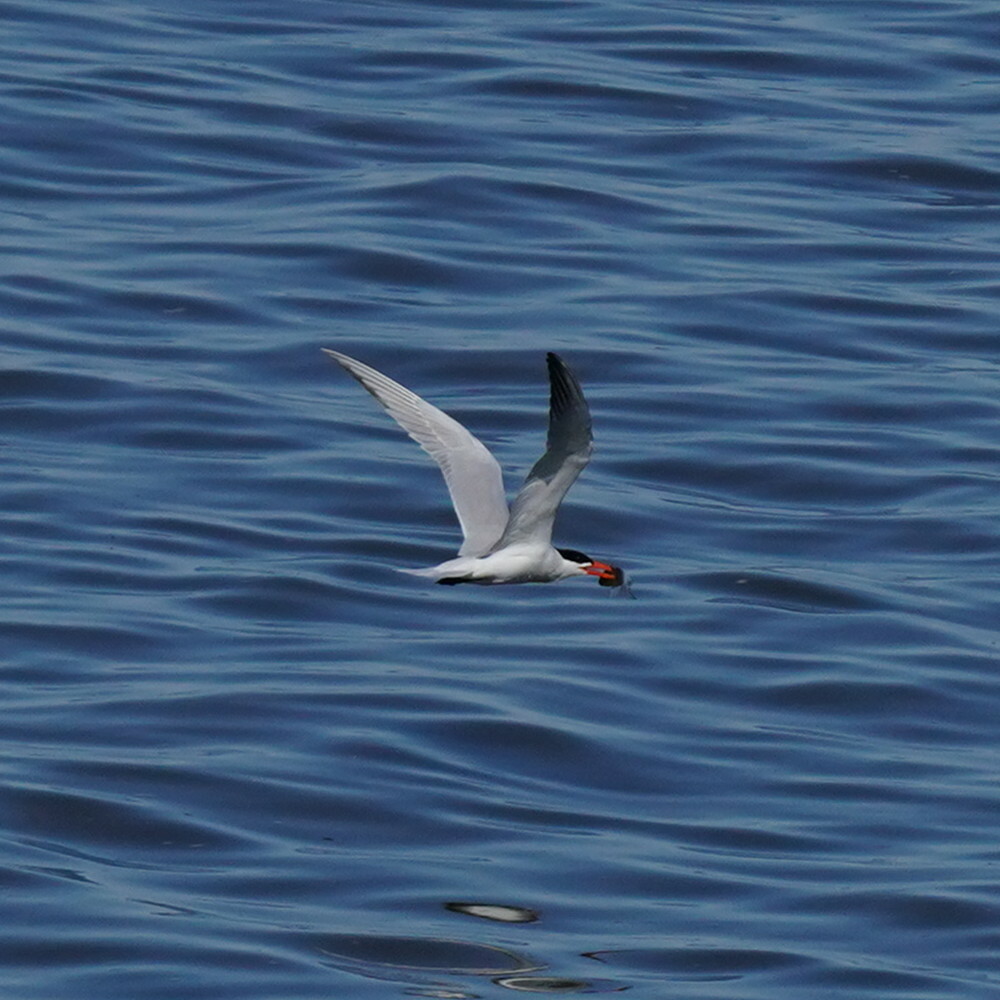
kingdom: Animalia
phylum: Chordata
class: Aves
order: Charadriiformes
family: Laridae
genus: Hydroprogne
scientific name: Hydroprogne caspia
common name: Caspian tern
